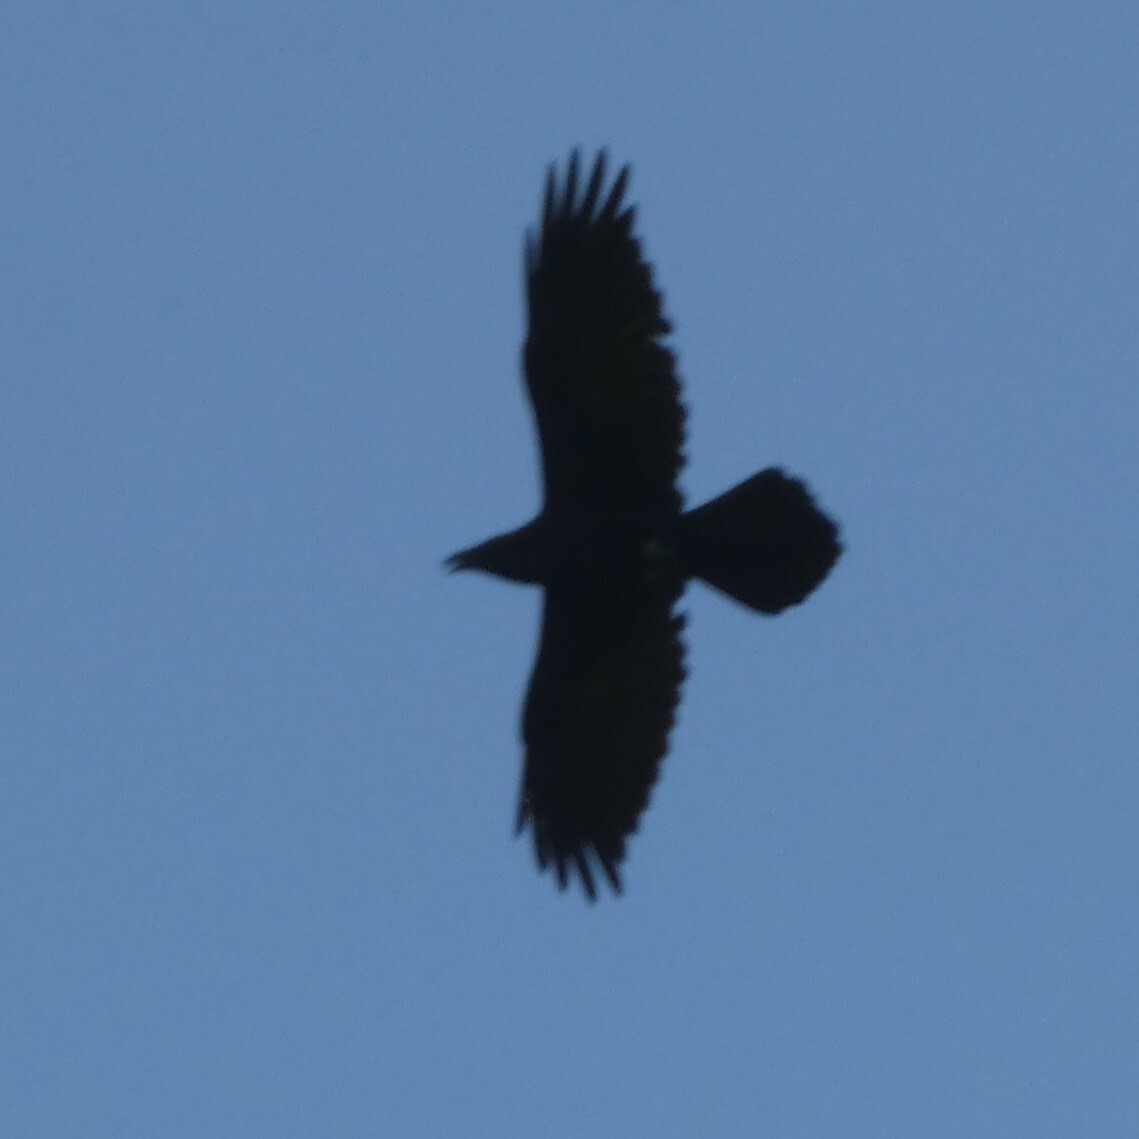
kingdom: Animalia
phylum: Chordata
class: Aves
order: Passeriformes
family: Corvidae
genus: Corvus
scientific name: Corvus corax
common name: Common raven
